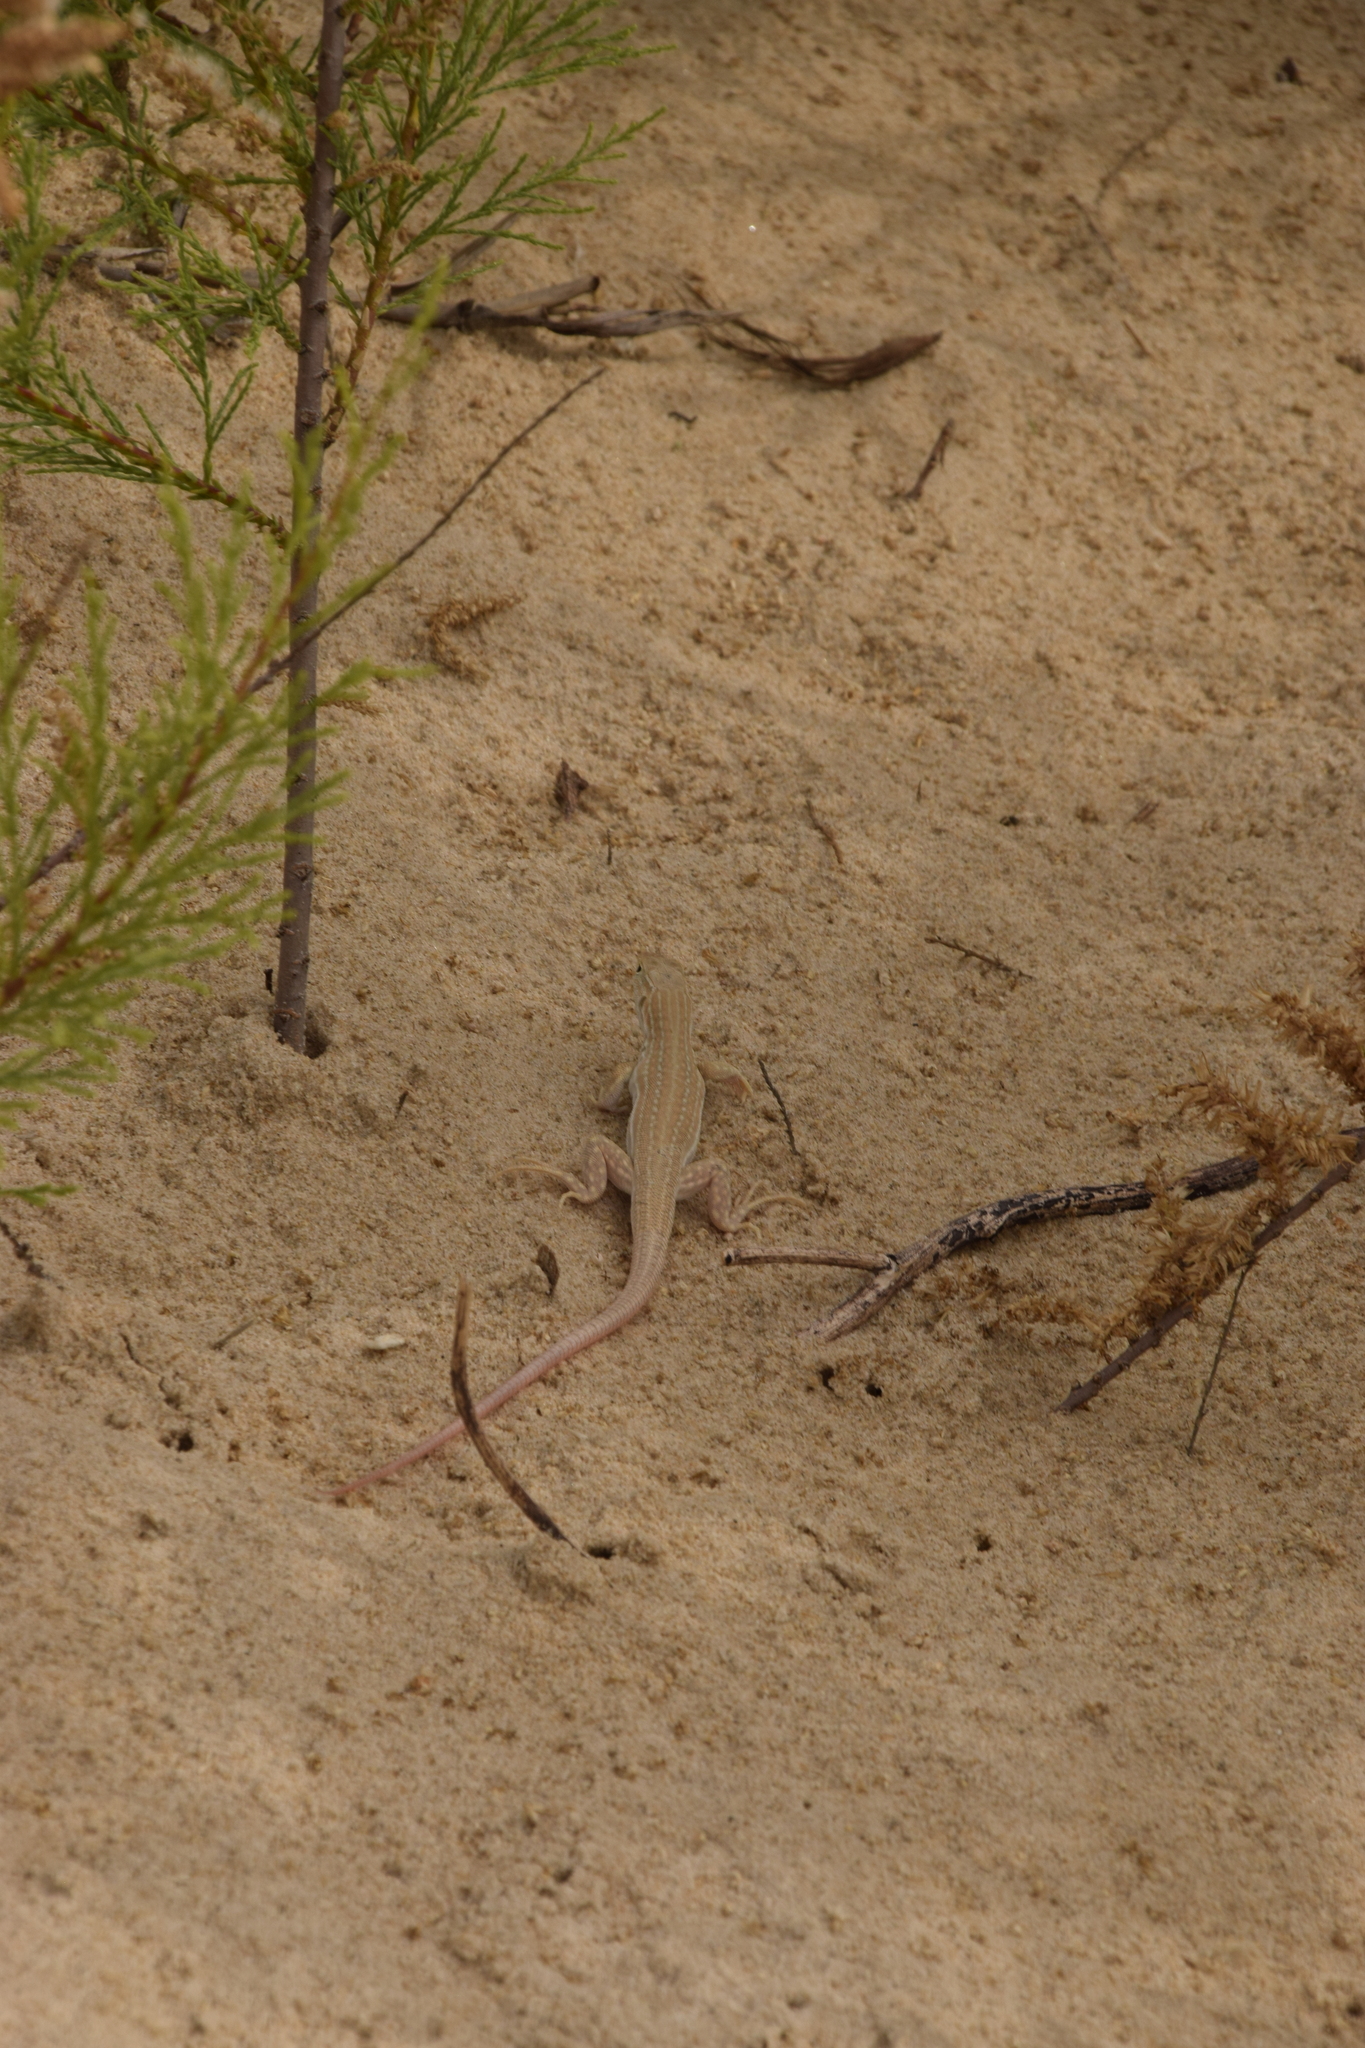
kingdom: Animalia
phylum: Chordata
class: Squamata
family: Lacertidae
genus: Acanthodactylus
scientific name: Acanthodactylus boskianus
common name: Bosc’s fringe-toed lizard
